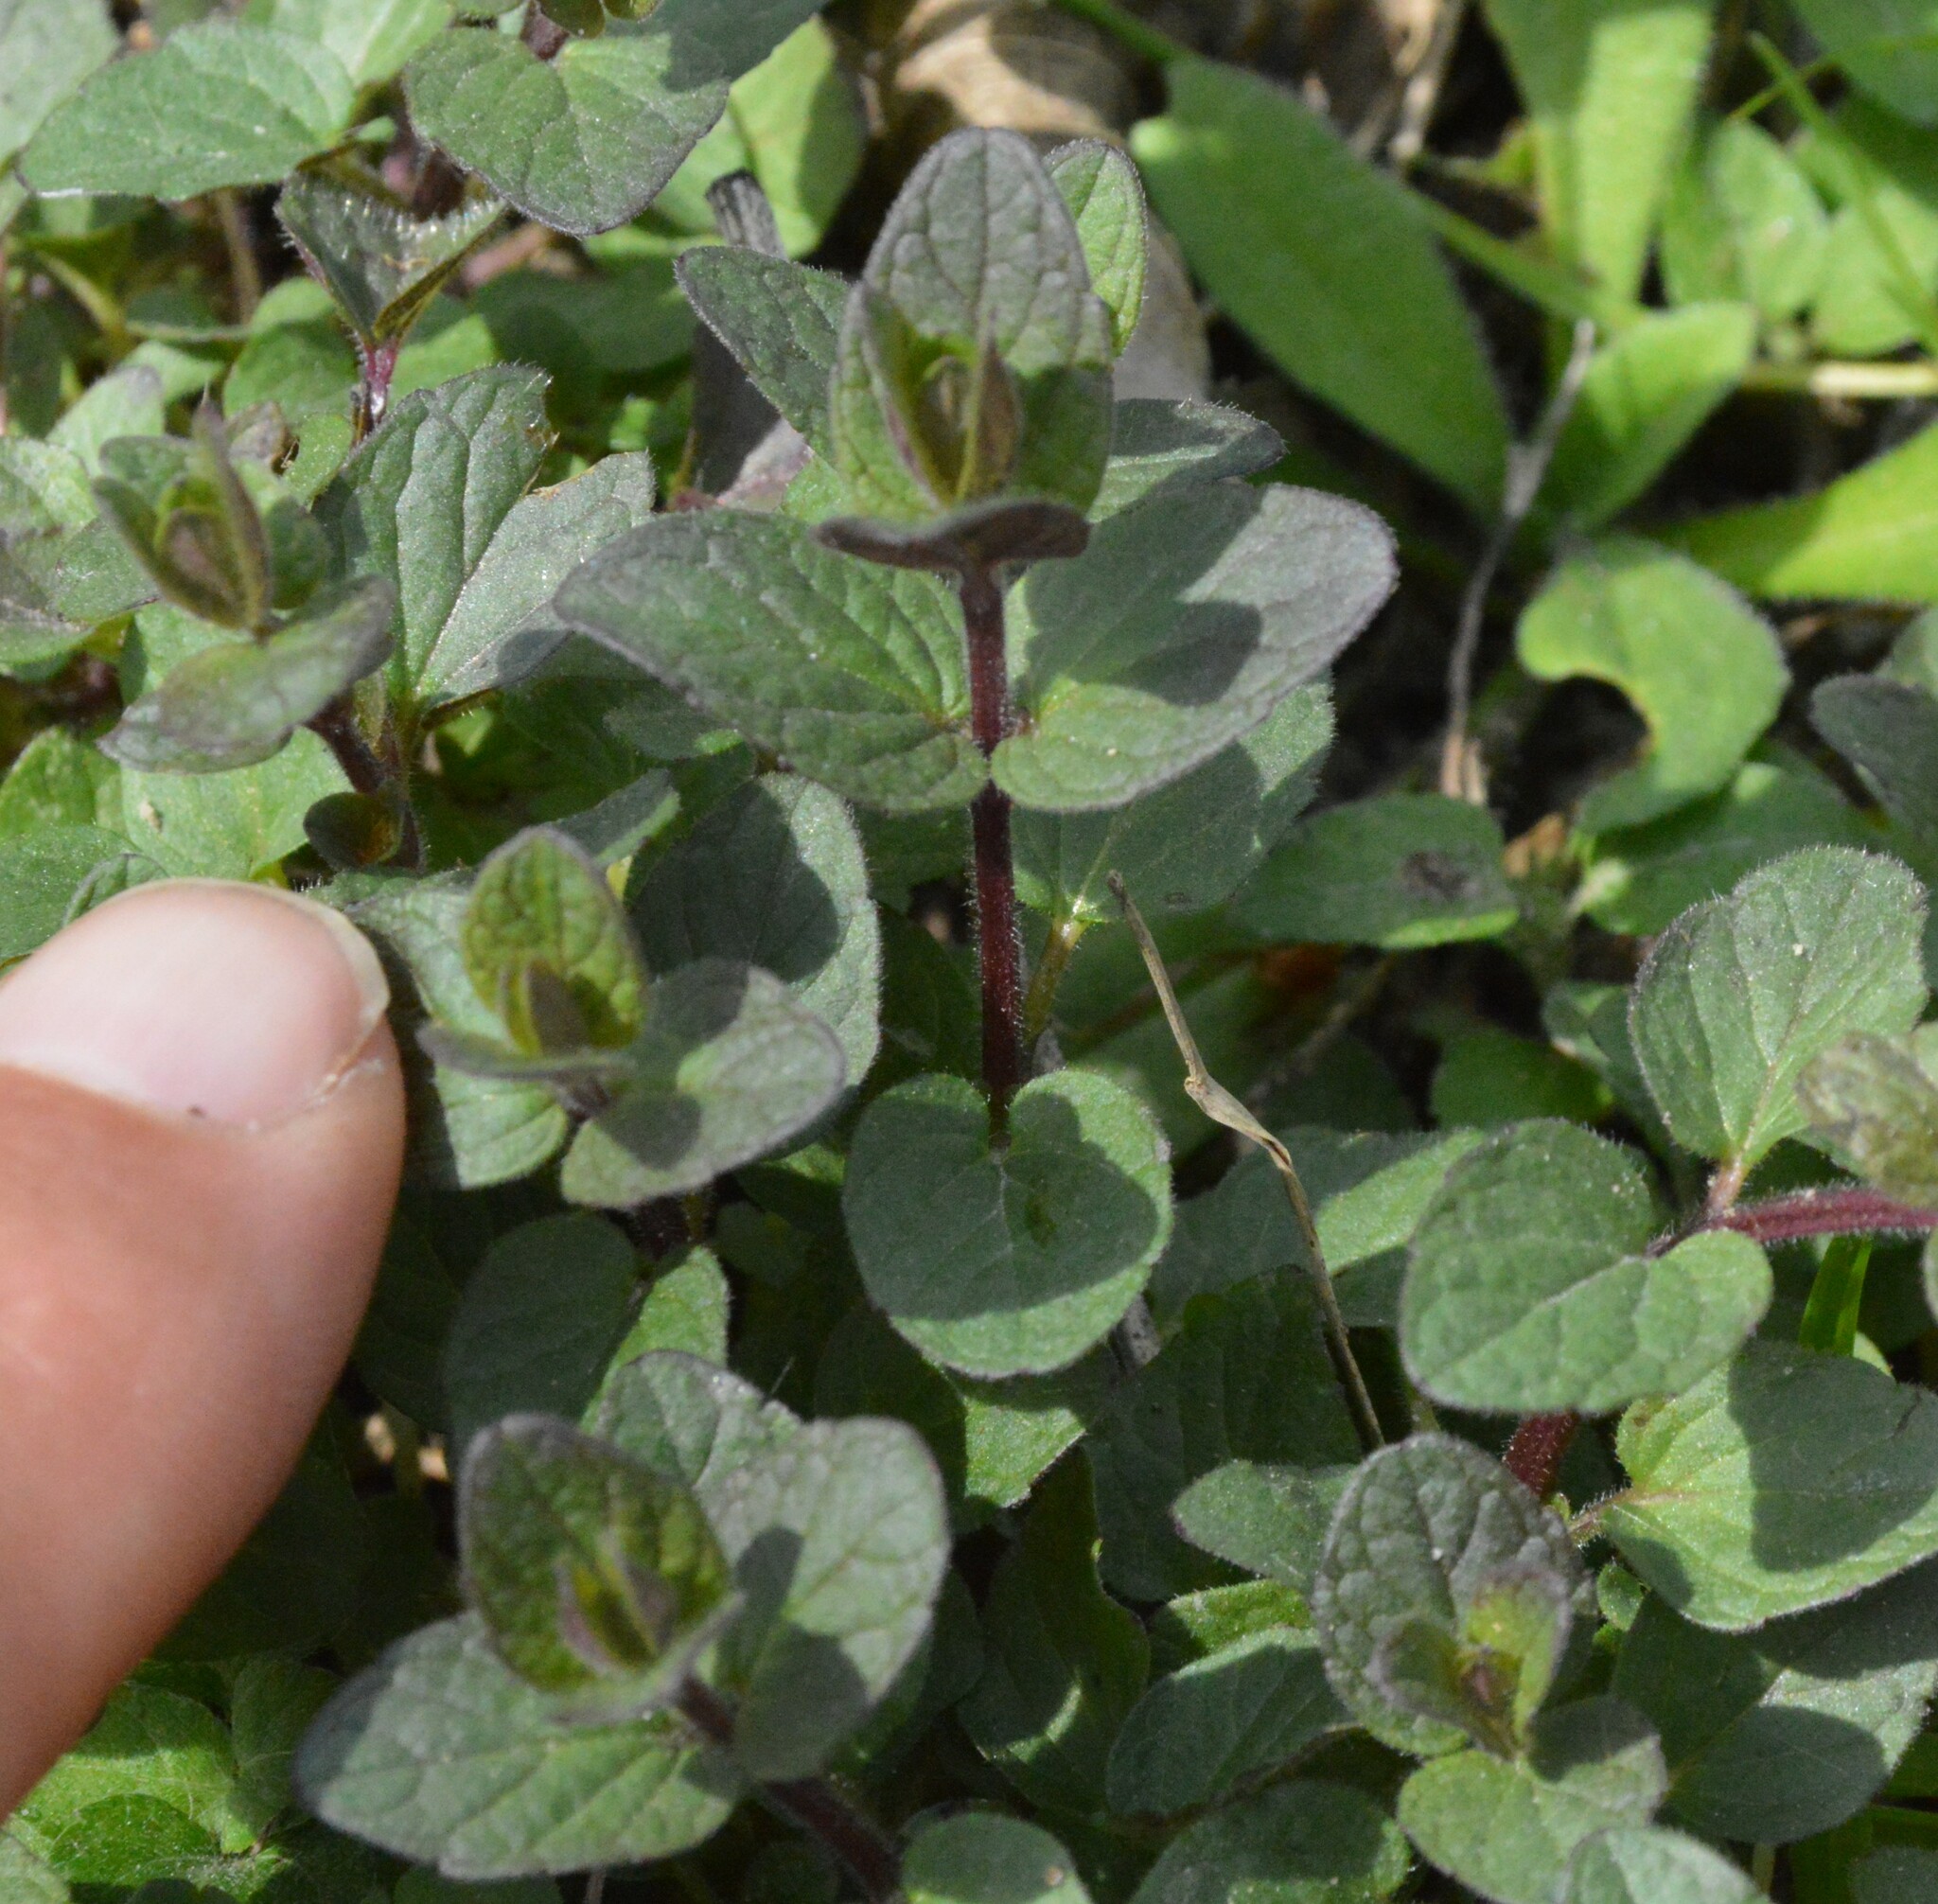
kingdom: Plantae
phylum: Tracheophyta
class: Magnoliopsida
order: Lamiales
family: Lamiaceae
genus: Scutellaria
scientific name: Scutellaria parvula
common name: Little scullcap
